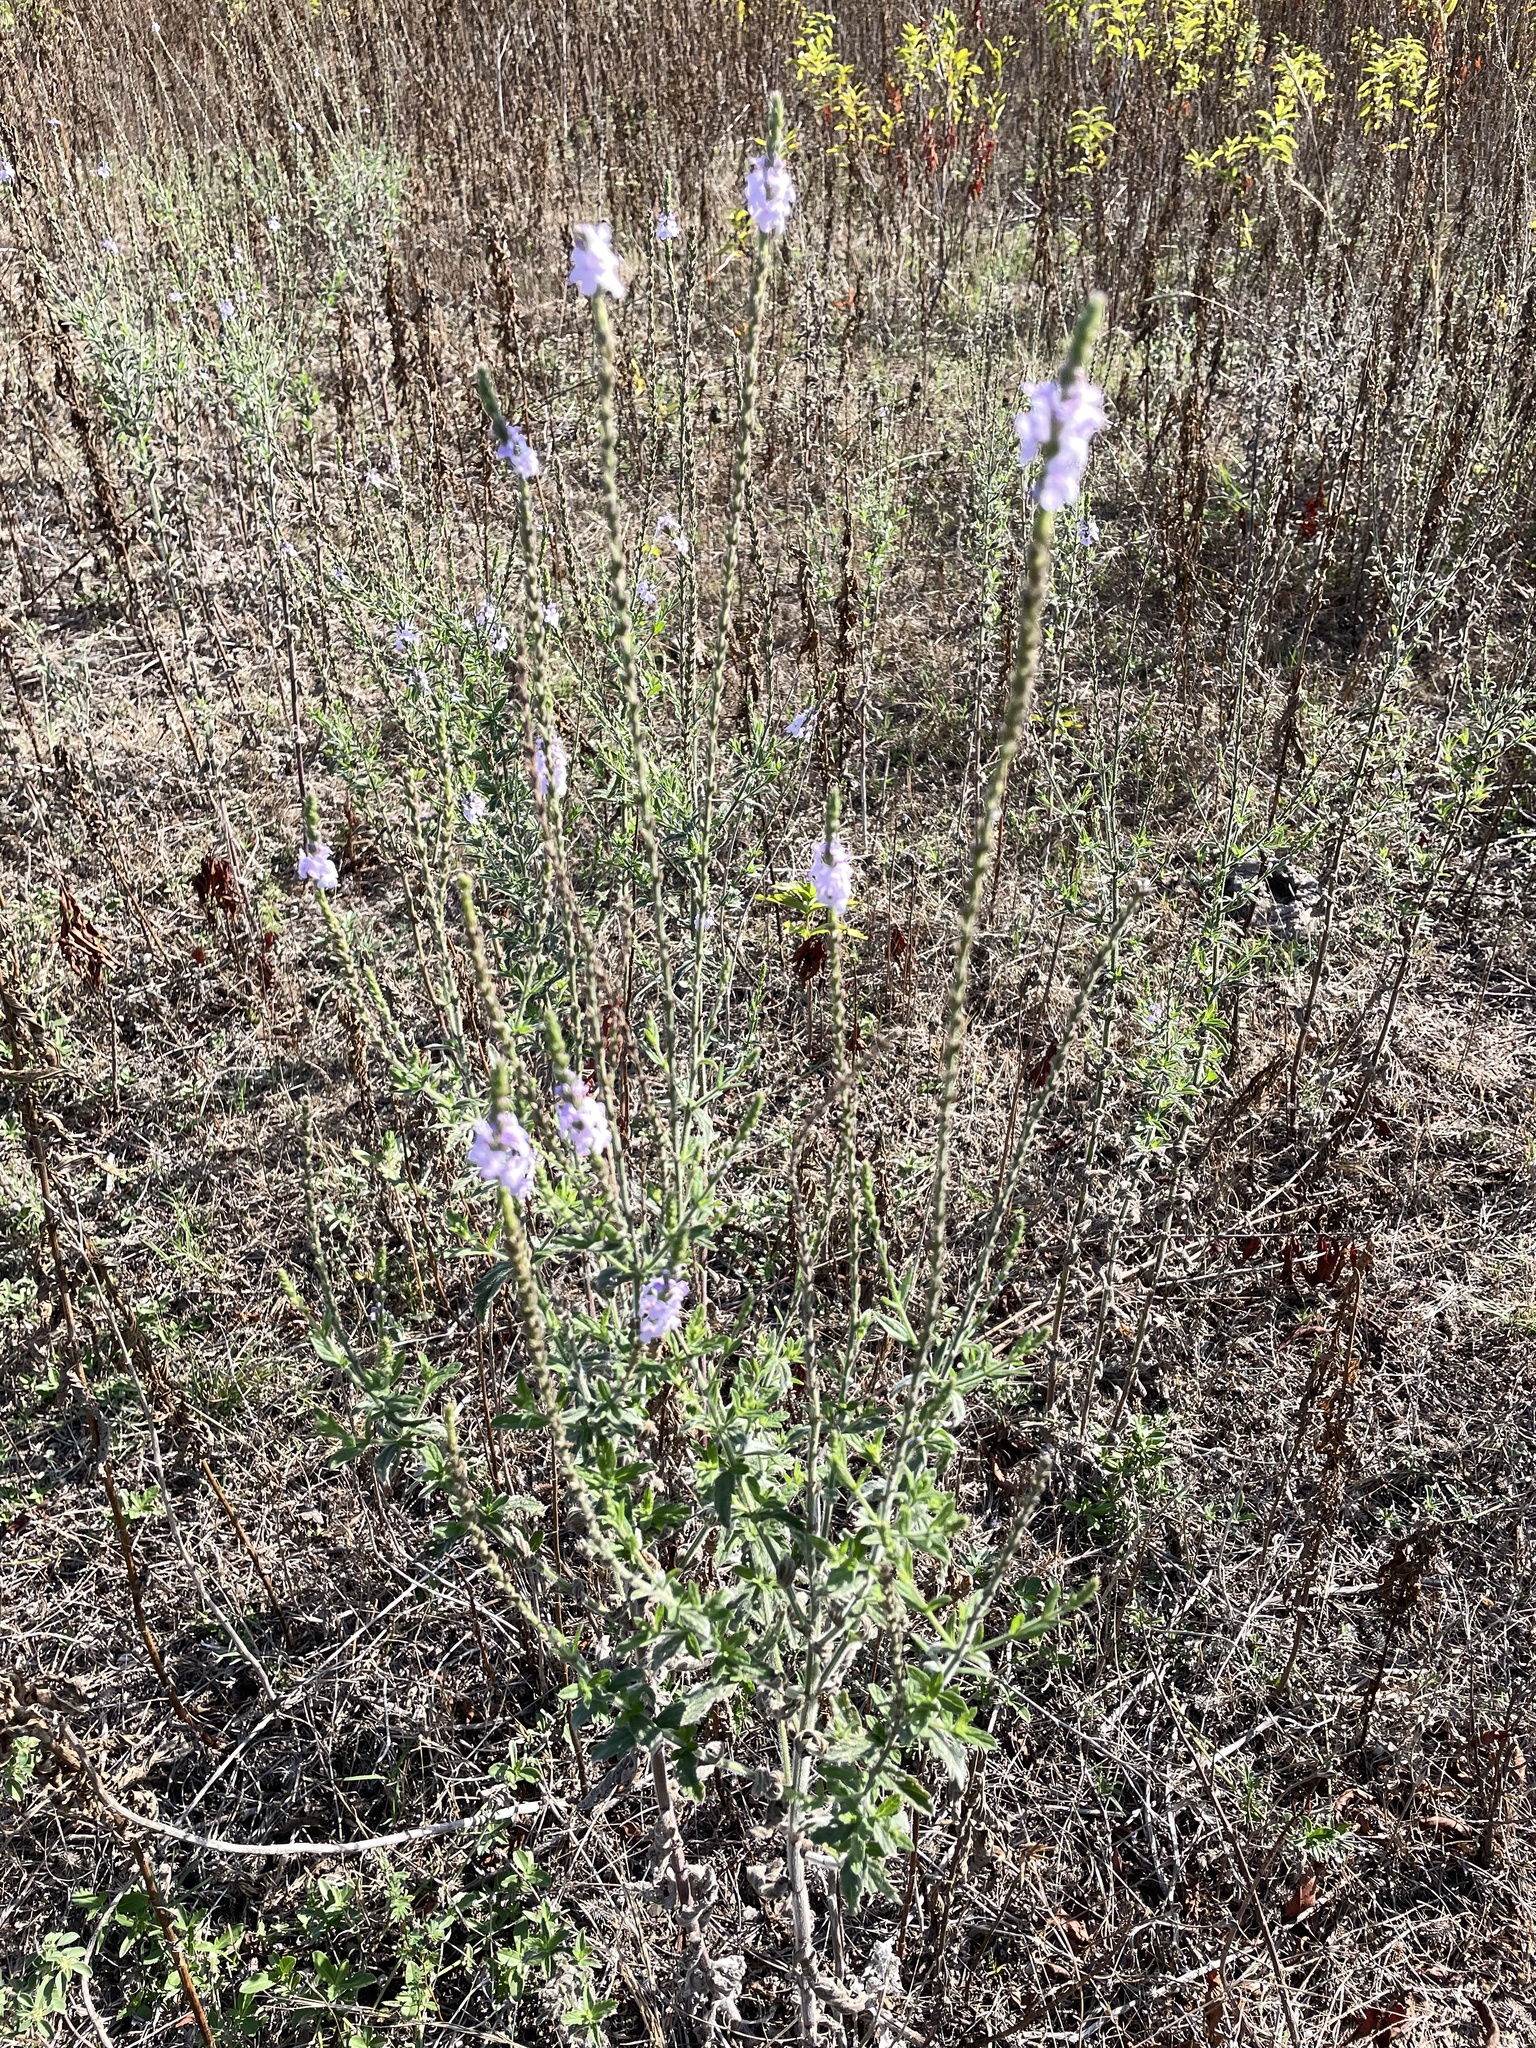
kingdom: Plantae
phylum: Tracheophyta
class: Magnoliopsida
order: Lamiales
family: Verbenaceae
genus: Verbena
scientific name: Verbena xutha
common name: Gulf vervain
